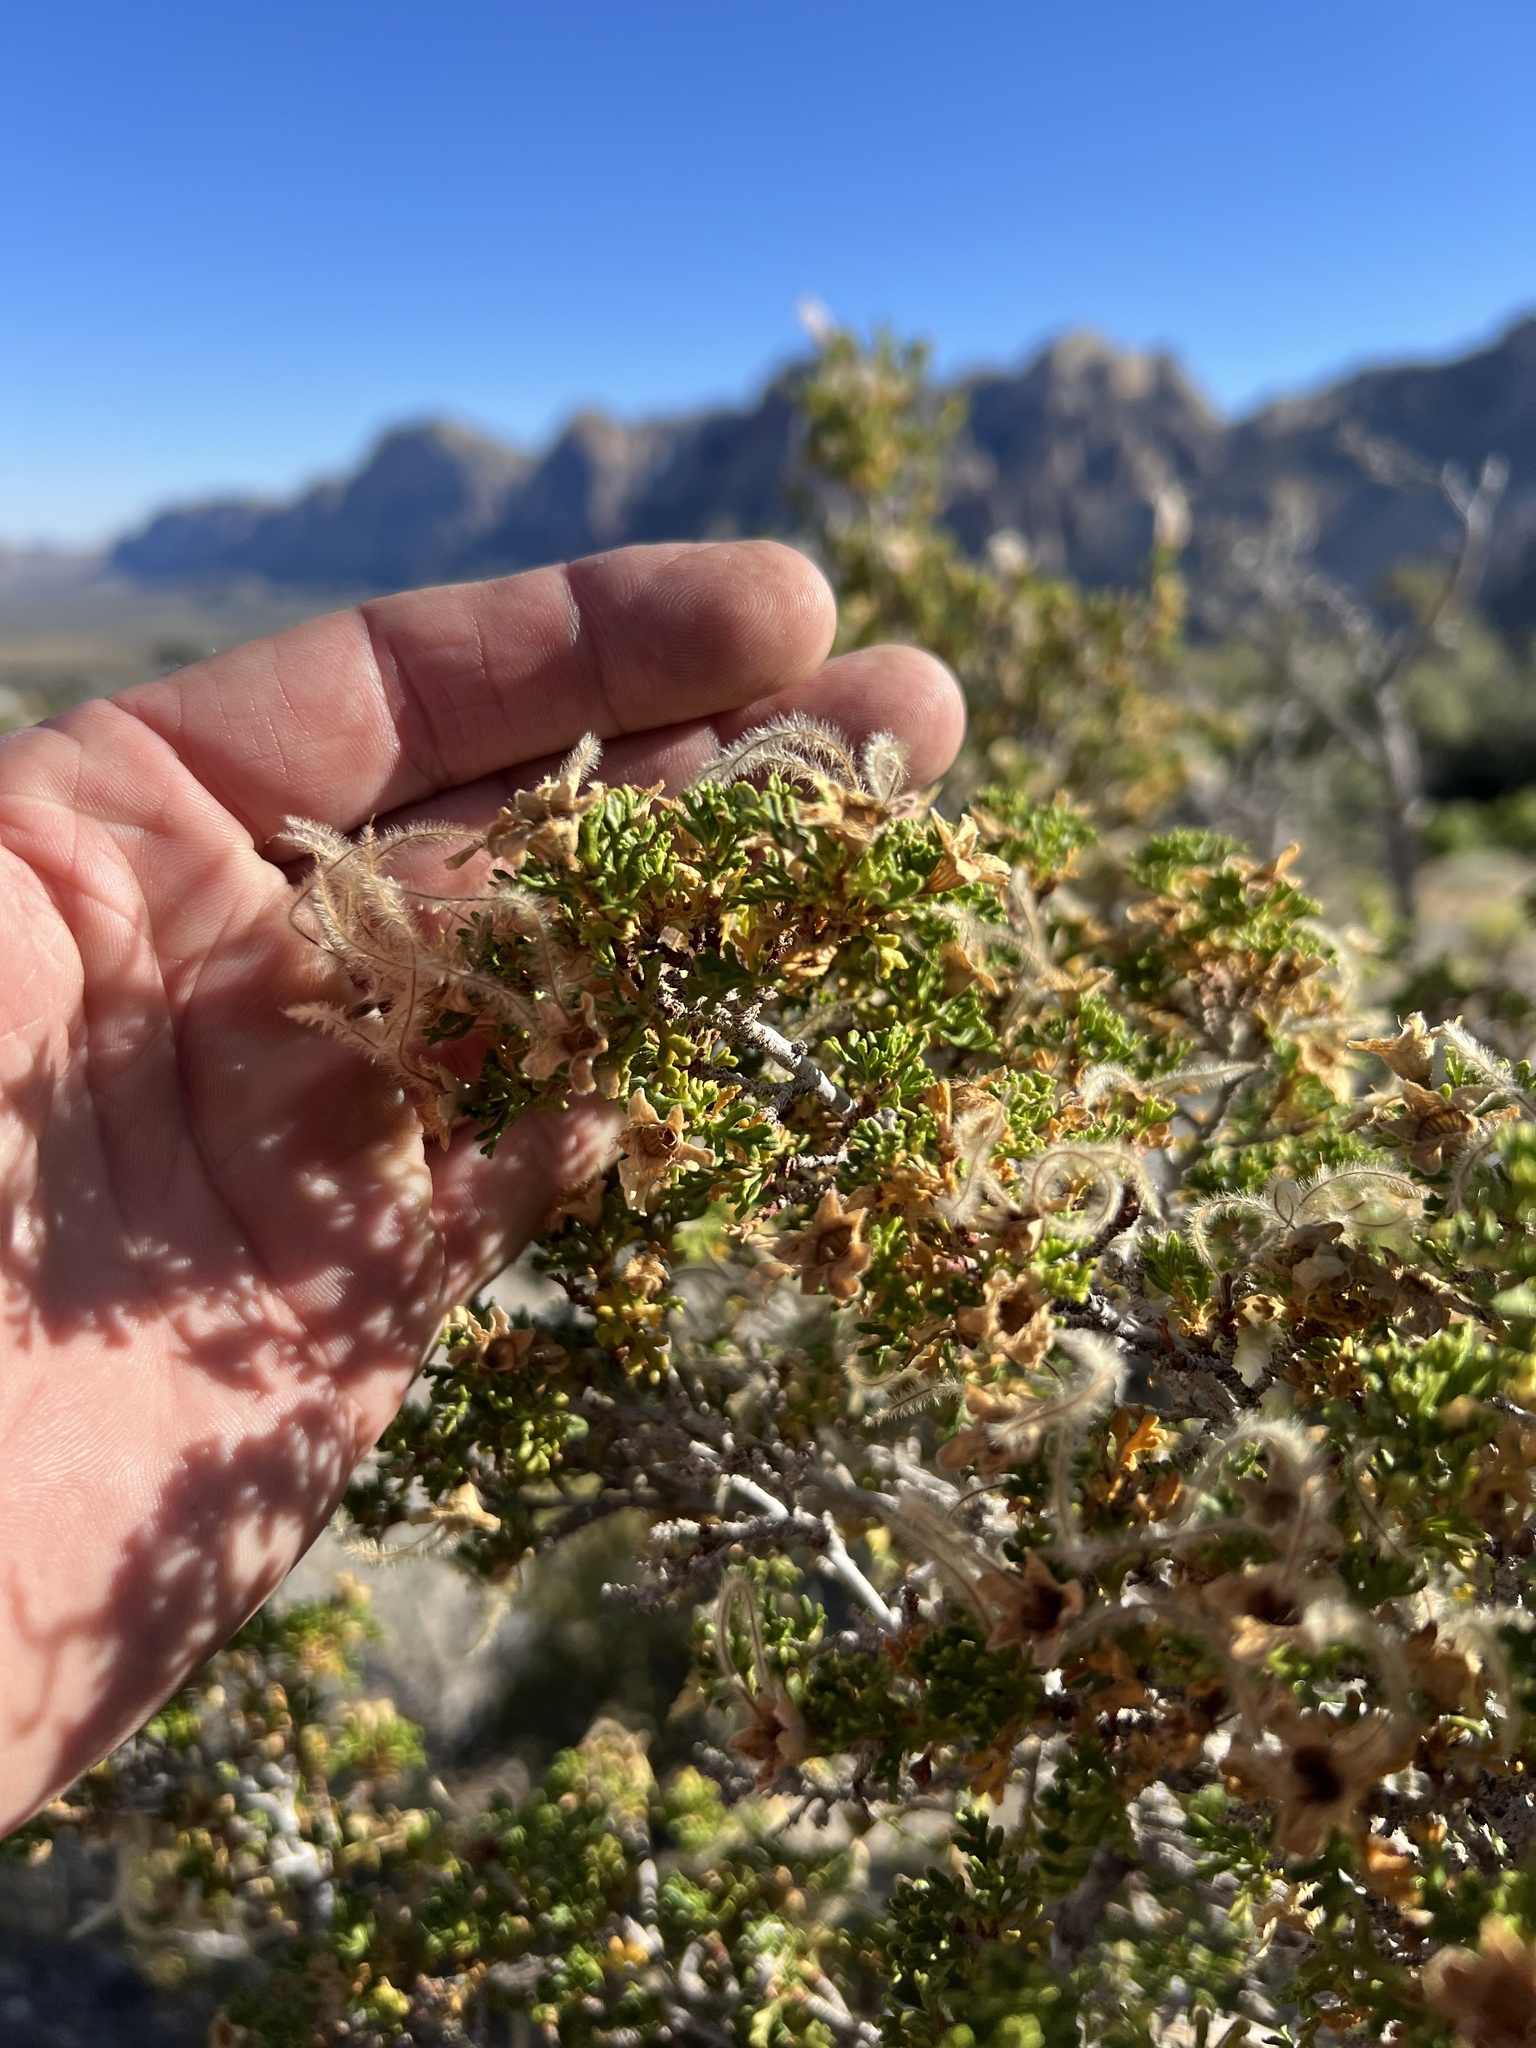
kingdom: Plantae
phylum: Tracheophyta
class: Magnoliopsida
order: Rosales
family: Rosaceae
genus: Purshia
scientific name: Purshia stansburiana
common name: Stansbury's cliffrose
